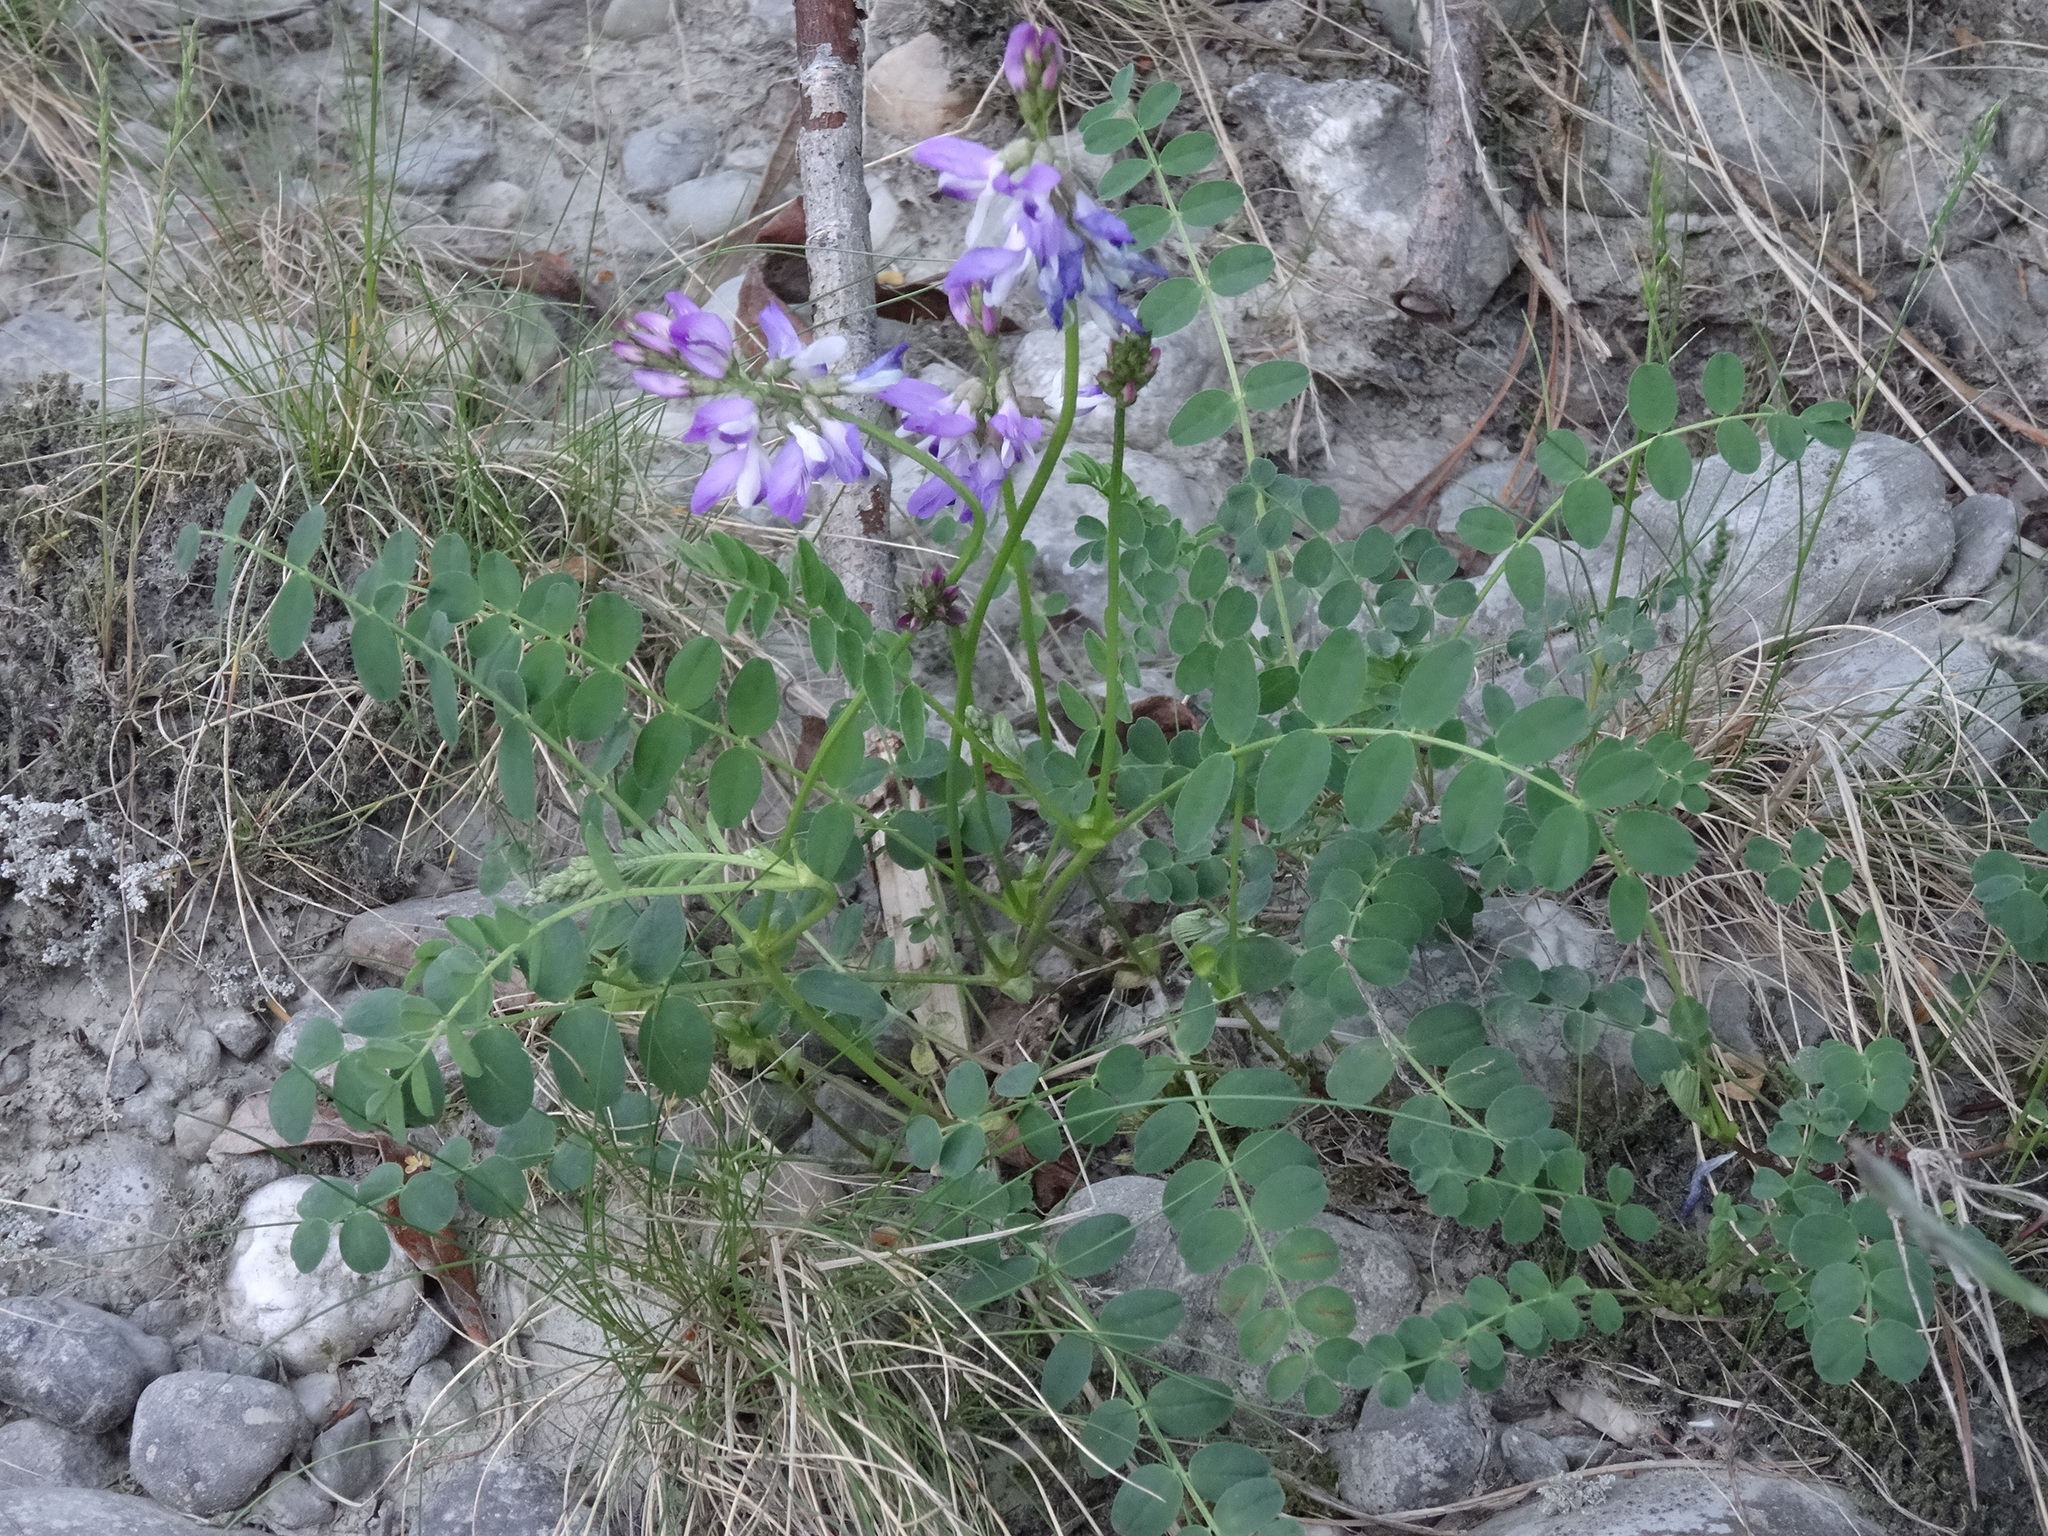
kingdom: Plantae
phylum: Tracheophyta
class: Magnoliopsida
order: Fabales
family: Fabaceae
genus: Astragalus
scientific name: Astragalus alpinus
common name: Alpine milk-vetch
